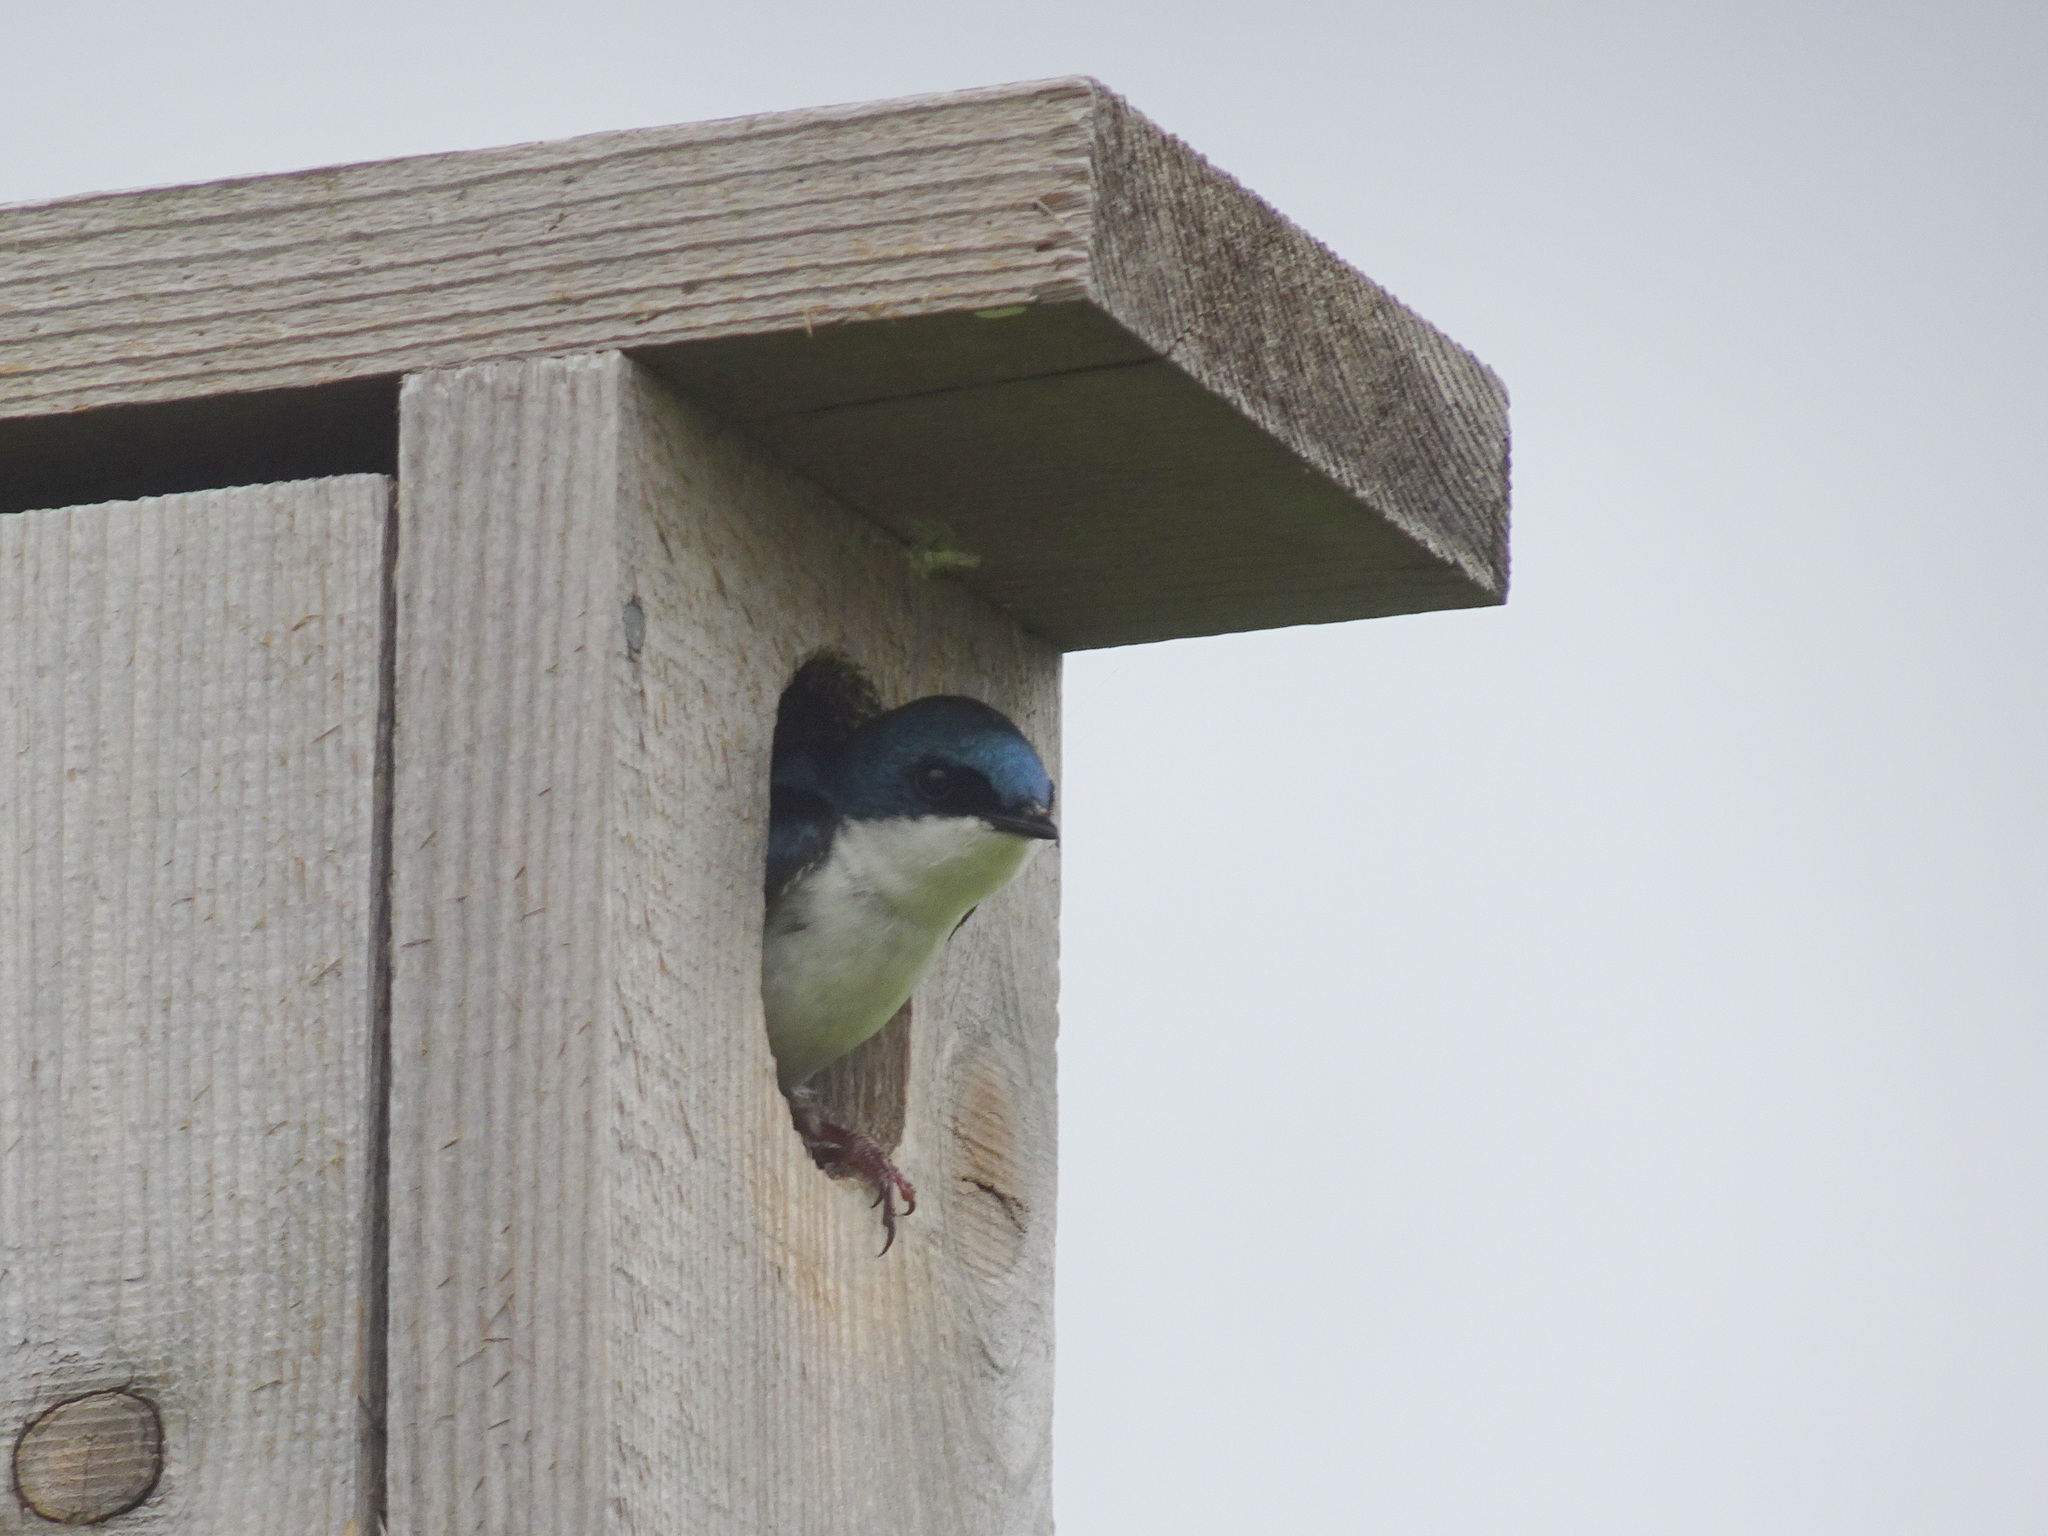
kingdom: Animalia
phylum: Chordata
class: Aves
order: Passeriformes
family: Hirundinidae
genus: Tachycineta
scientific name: Tachycineta bicolor
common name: Tree swallow
